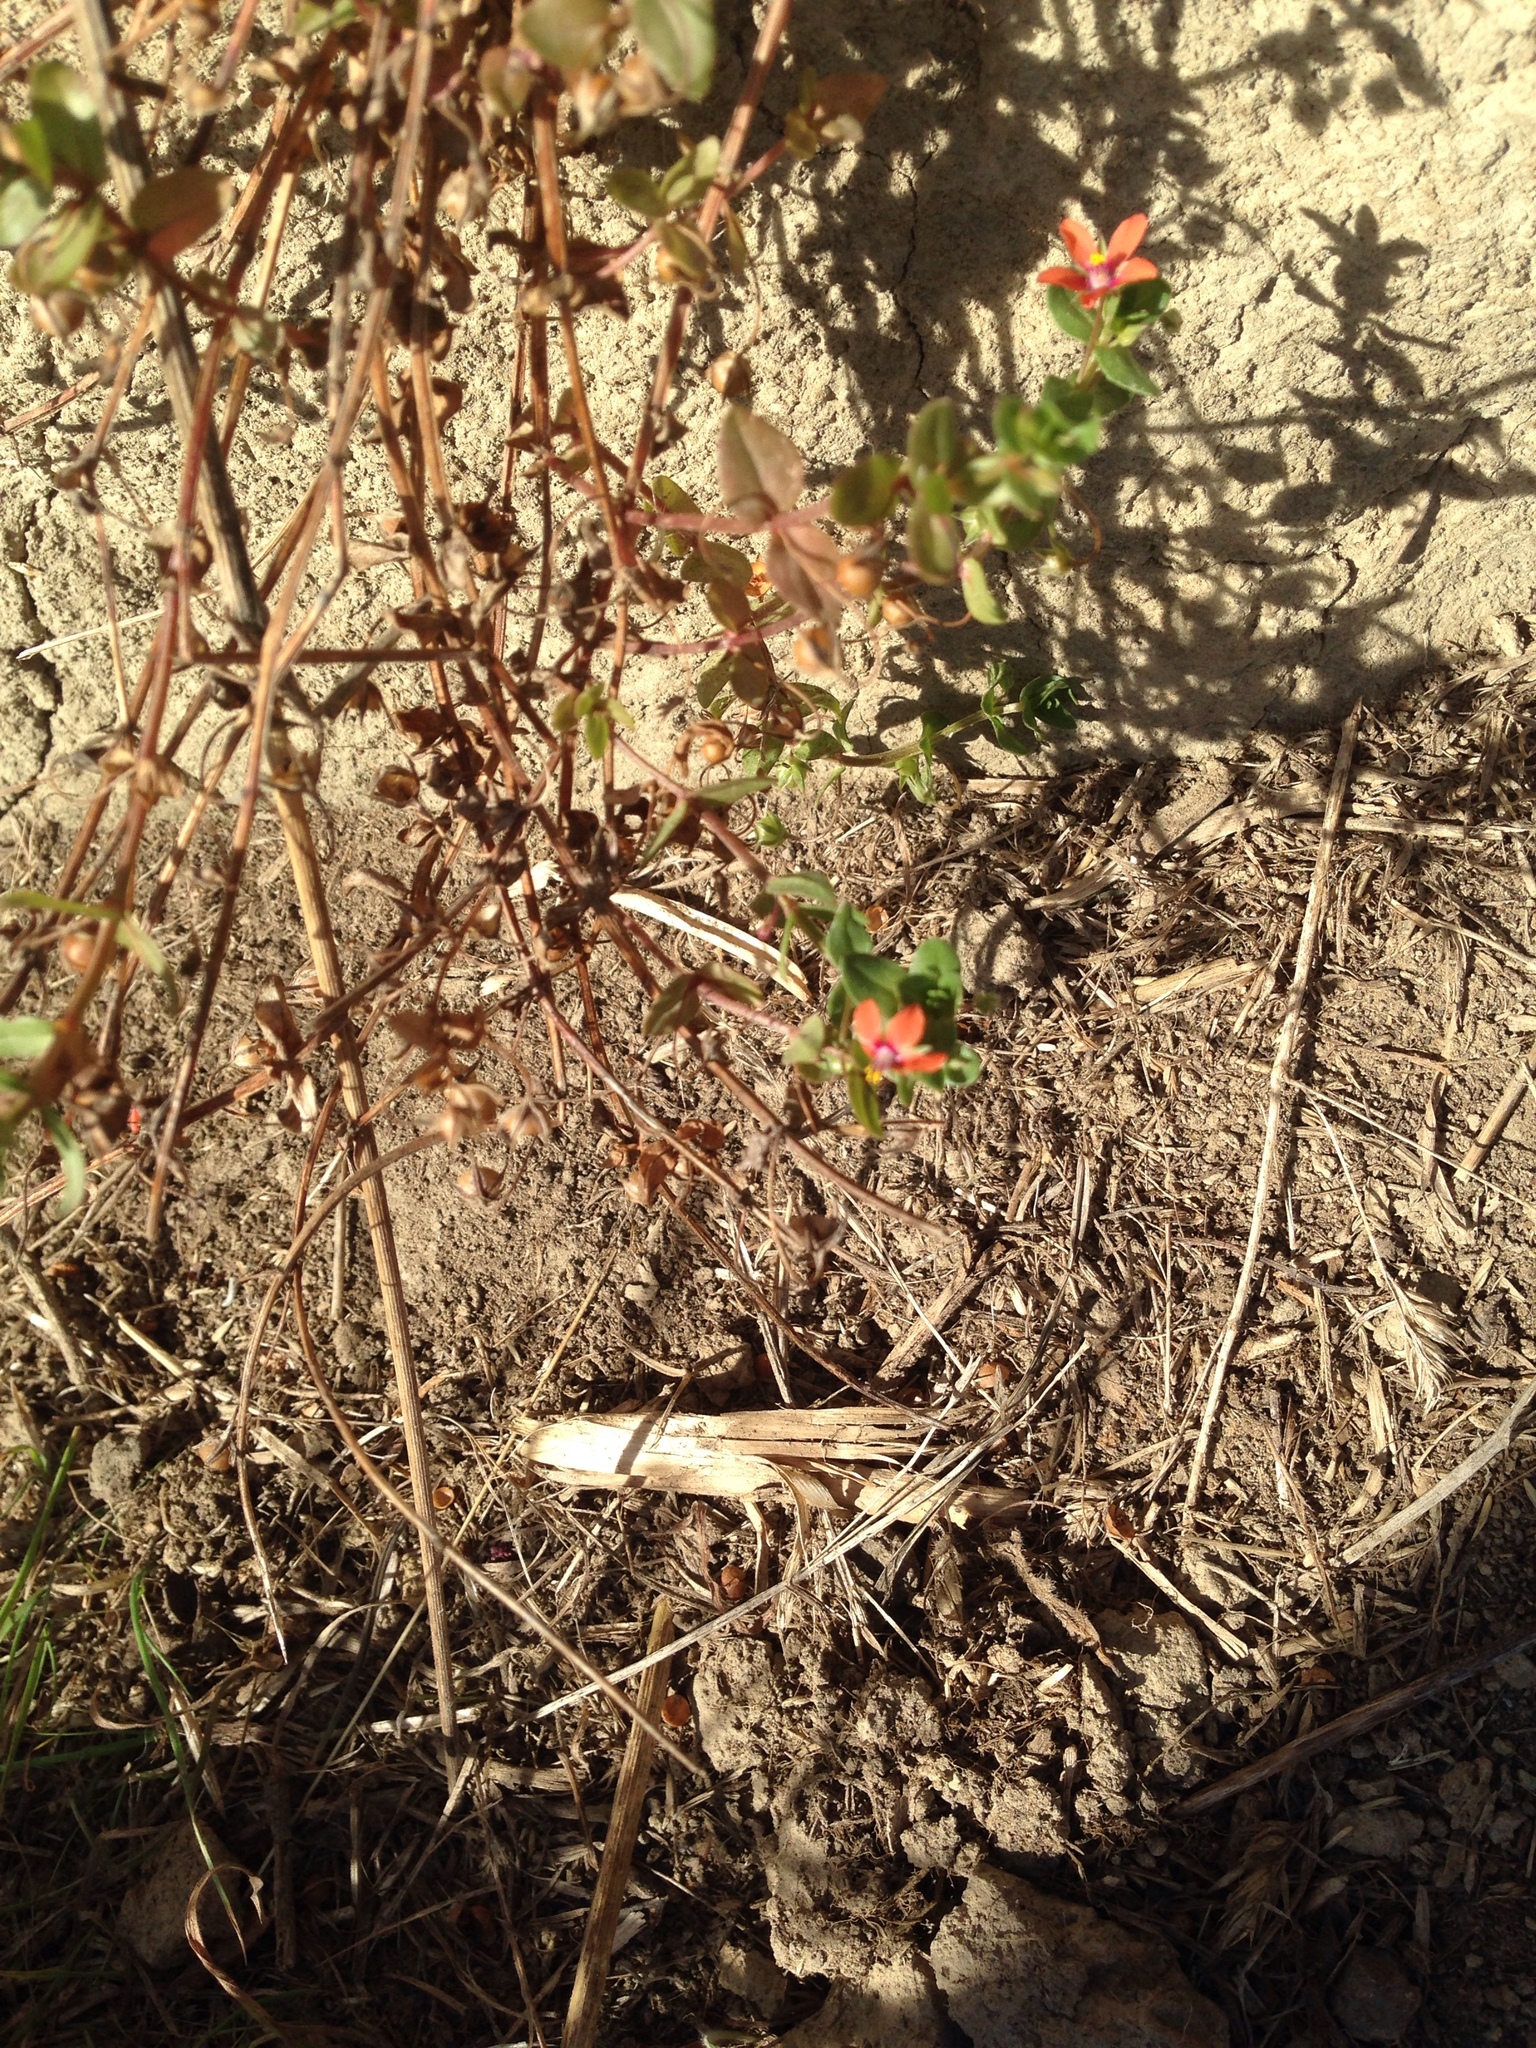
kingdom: Plantae
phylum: Tracheophyta
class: Magnoliopsida
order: Ericales
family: Primulaceae
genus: Lysimachia
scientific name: Lysimachia arvensis
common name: Scarlet pimpernel
